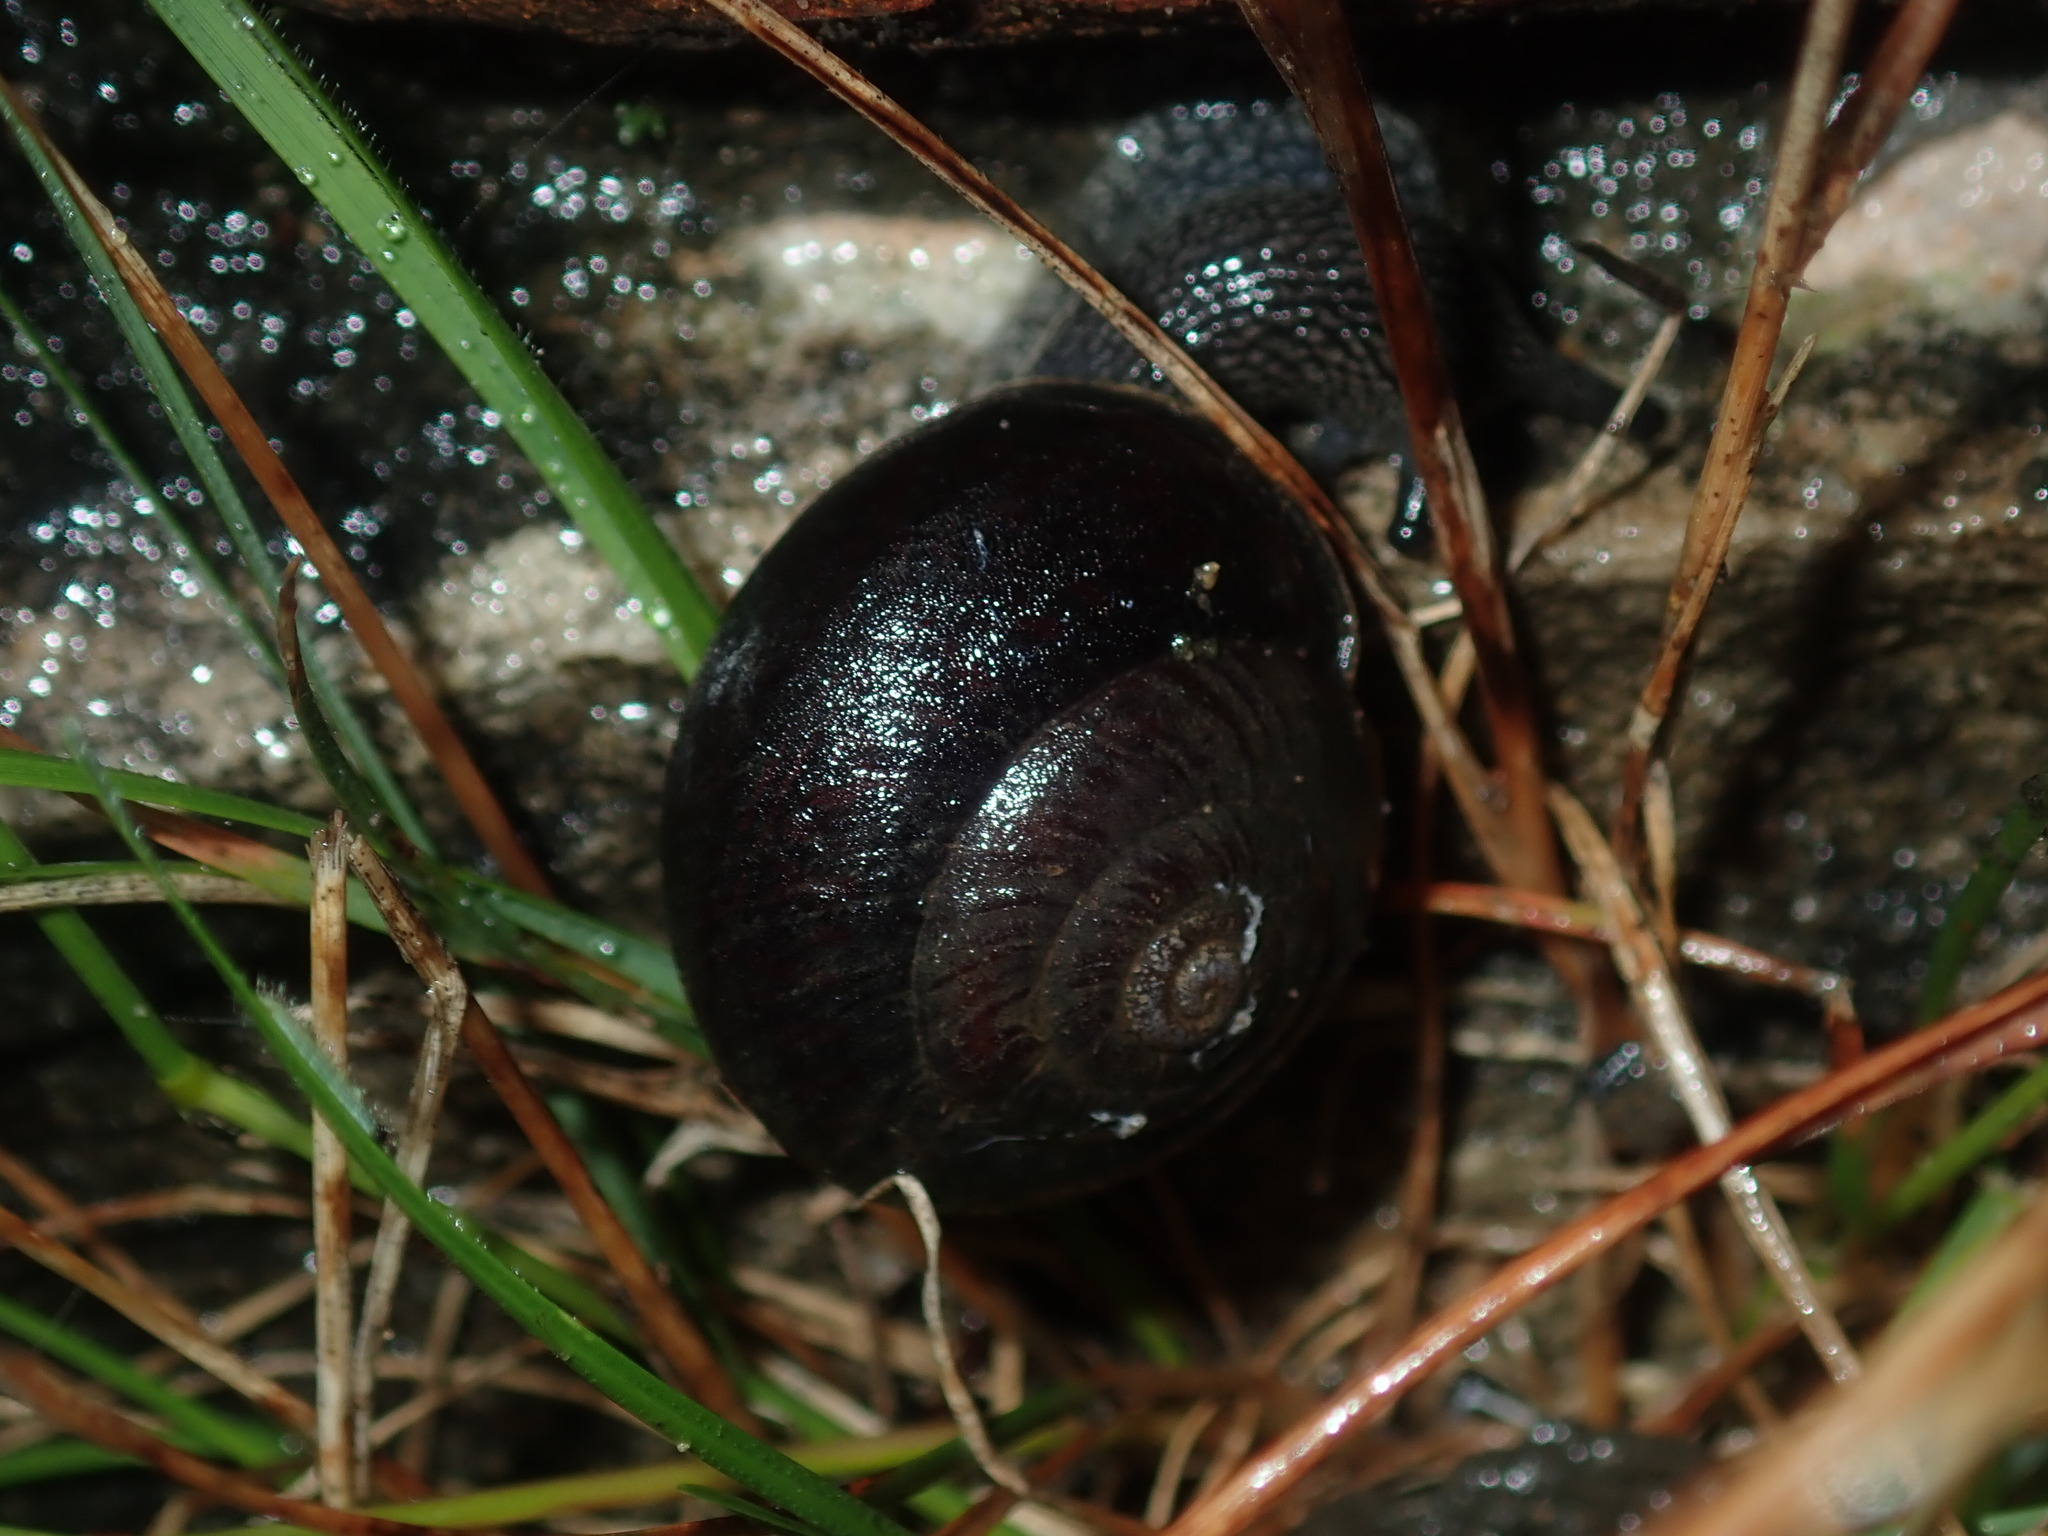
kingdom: Animalia
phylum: Mollusca
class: Gastropoda
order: Stylommatophora
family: Camaenidae
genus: Pommerhelix
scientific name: Pommerhelix monacha
